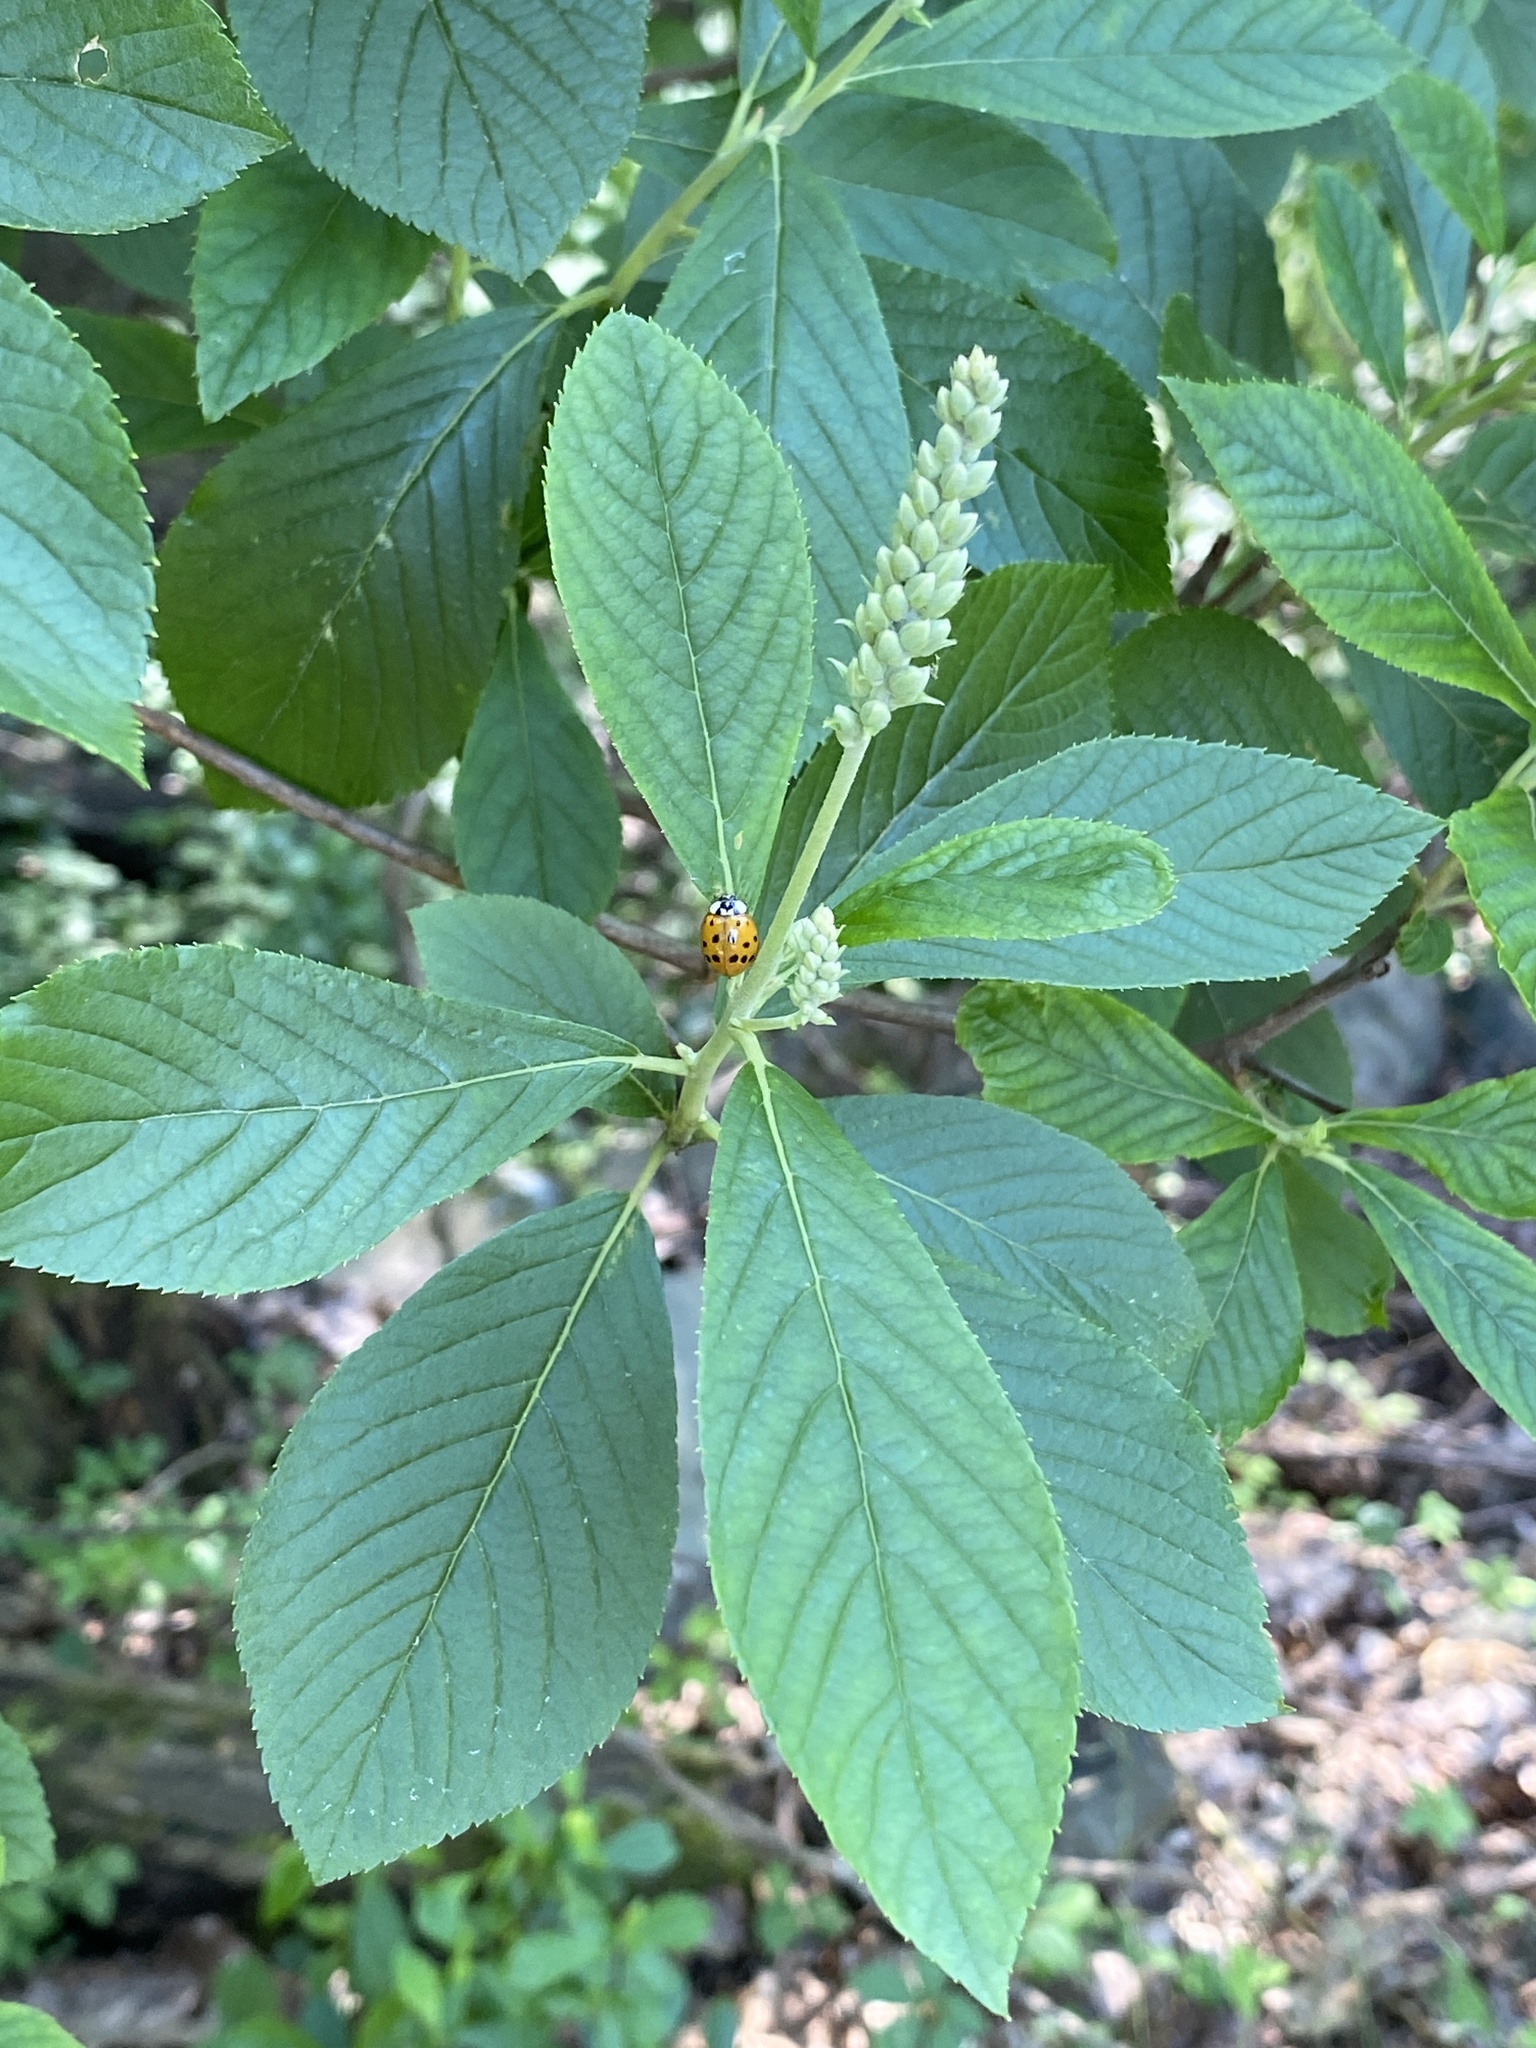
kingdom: Plantae
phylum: Tracheophyta
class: Magnoliopsida
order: Ericales
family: Clethraceae
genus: Clethra
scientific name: Clethra alnifolia
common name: Sweet pepperbush
